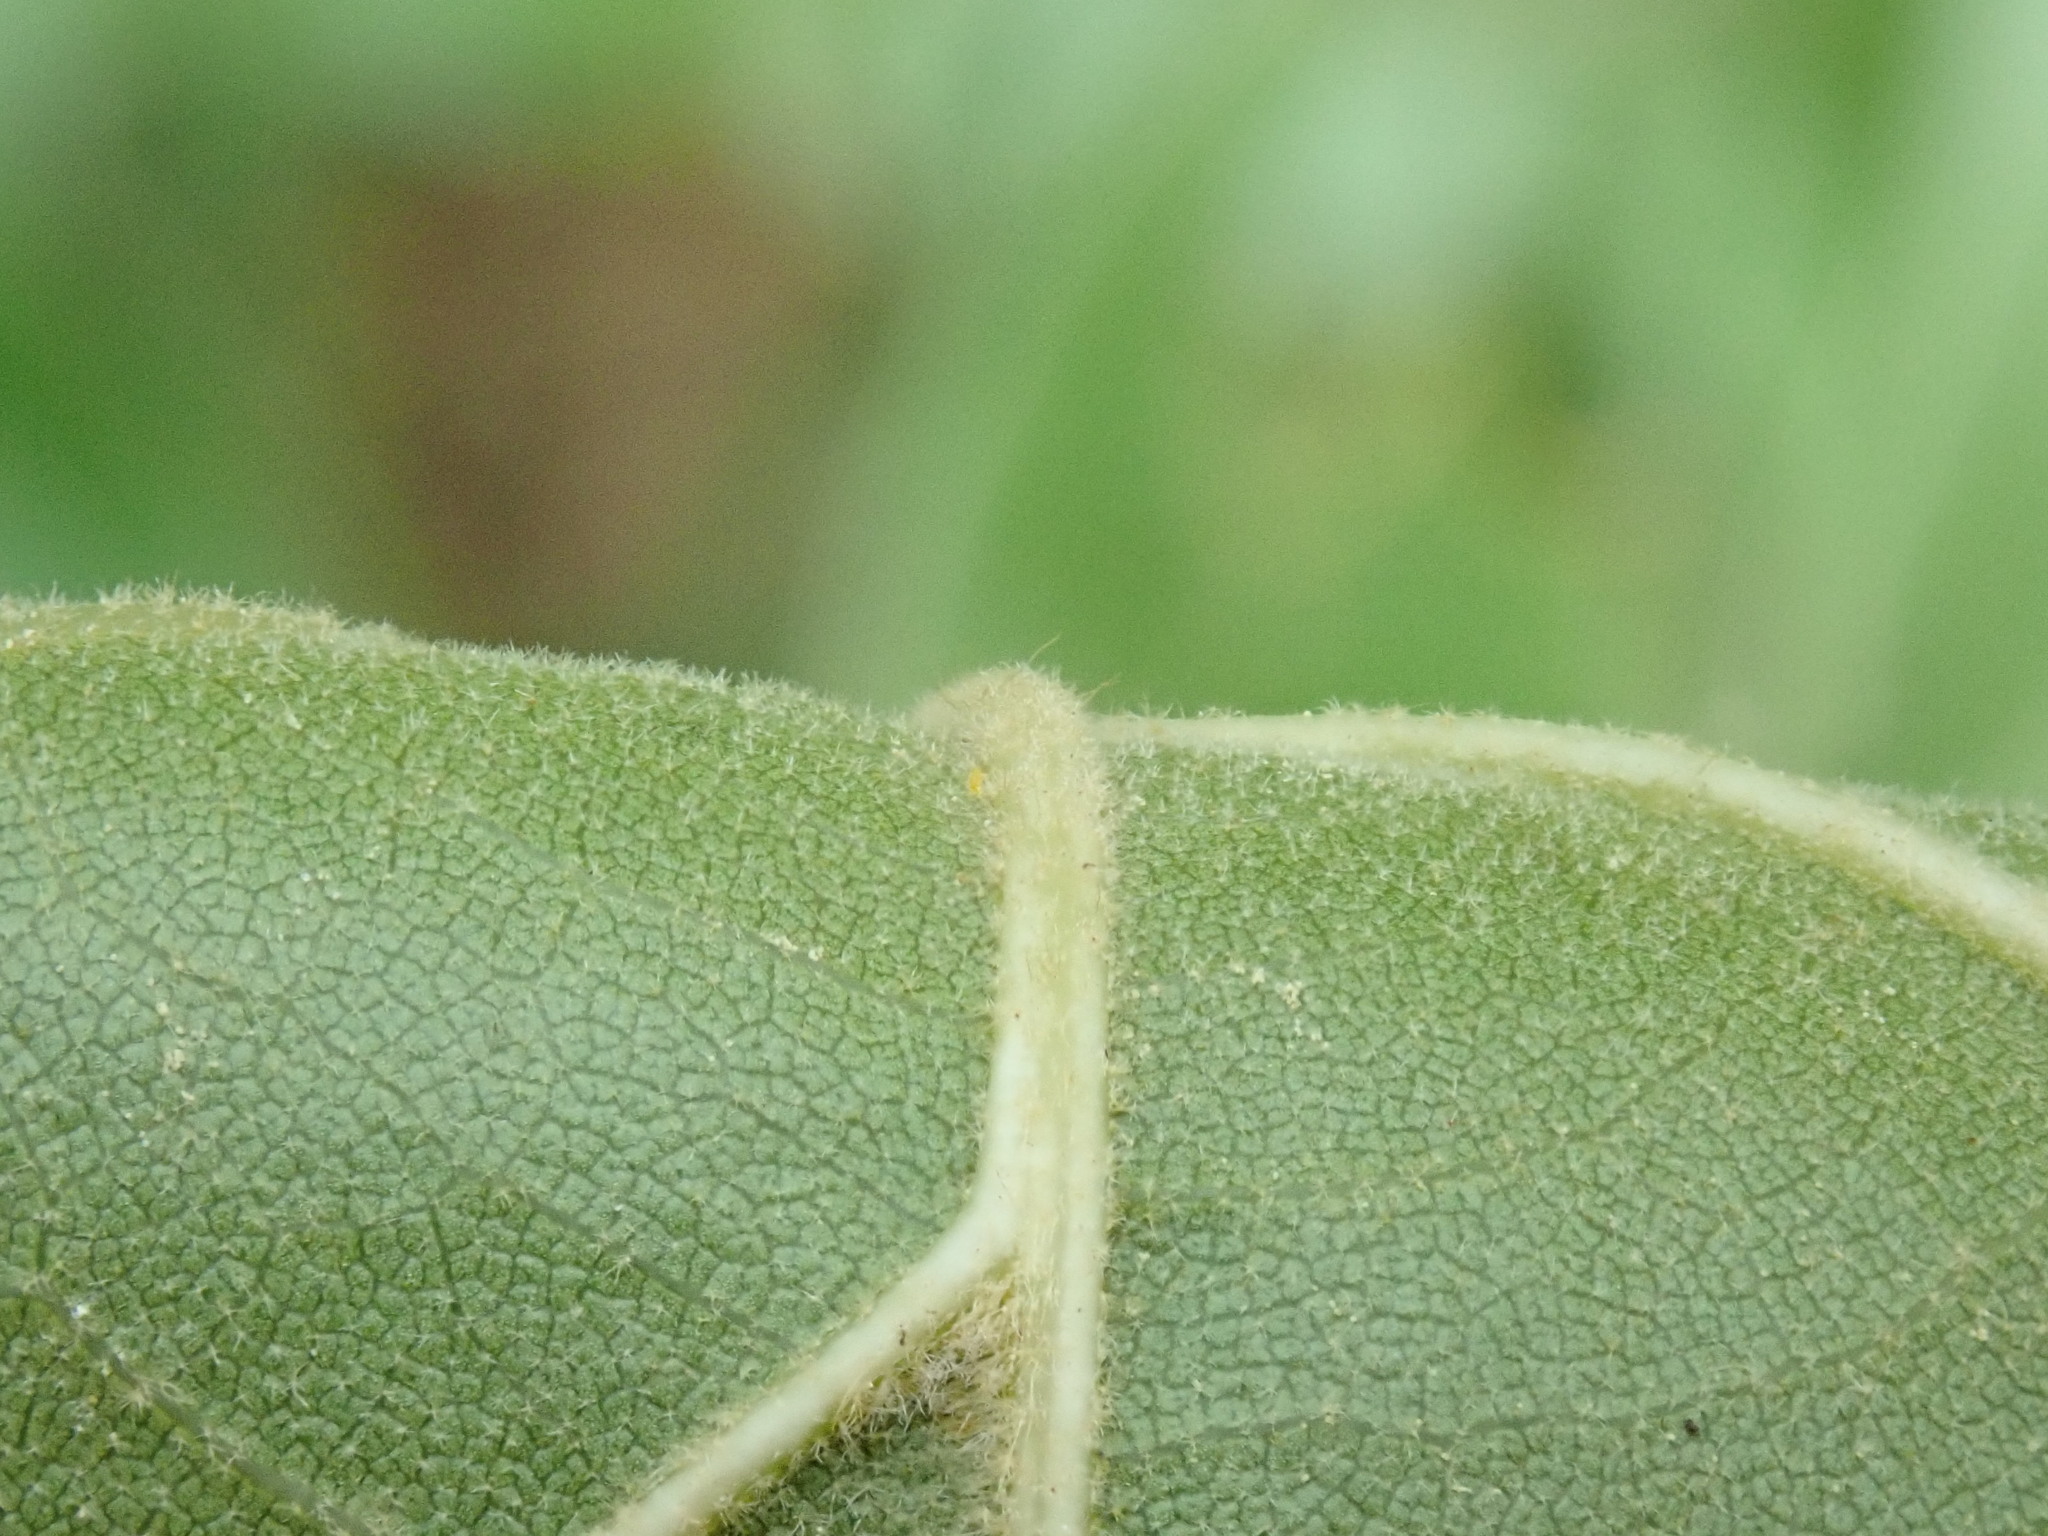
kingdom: Plantae
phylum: Tracheophyta
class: Magnoliopsida
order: Fagales
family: Fagaceae
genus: Quercus
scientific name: Quercus velutina
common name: Black oak
